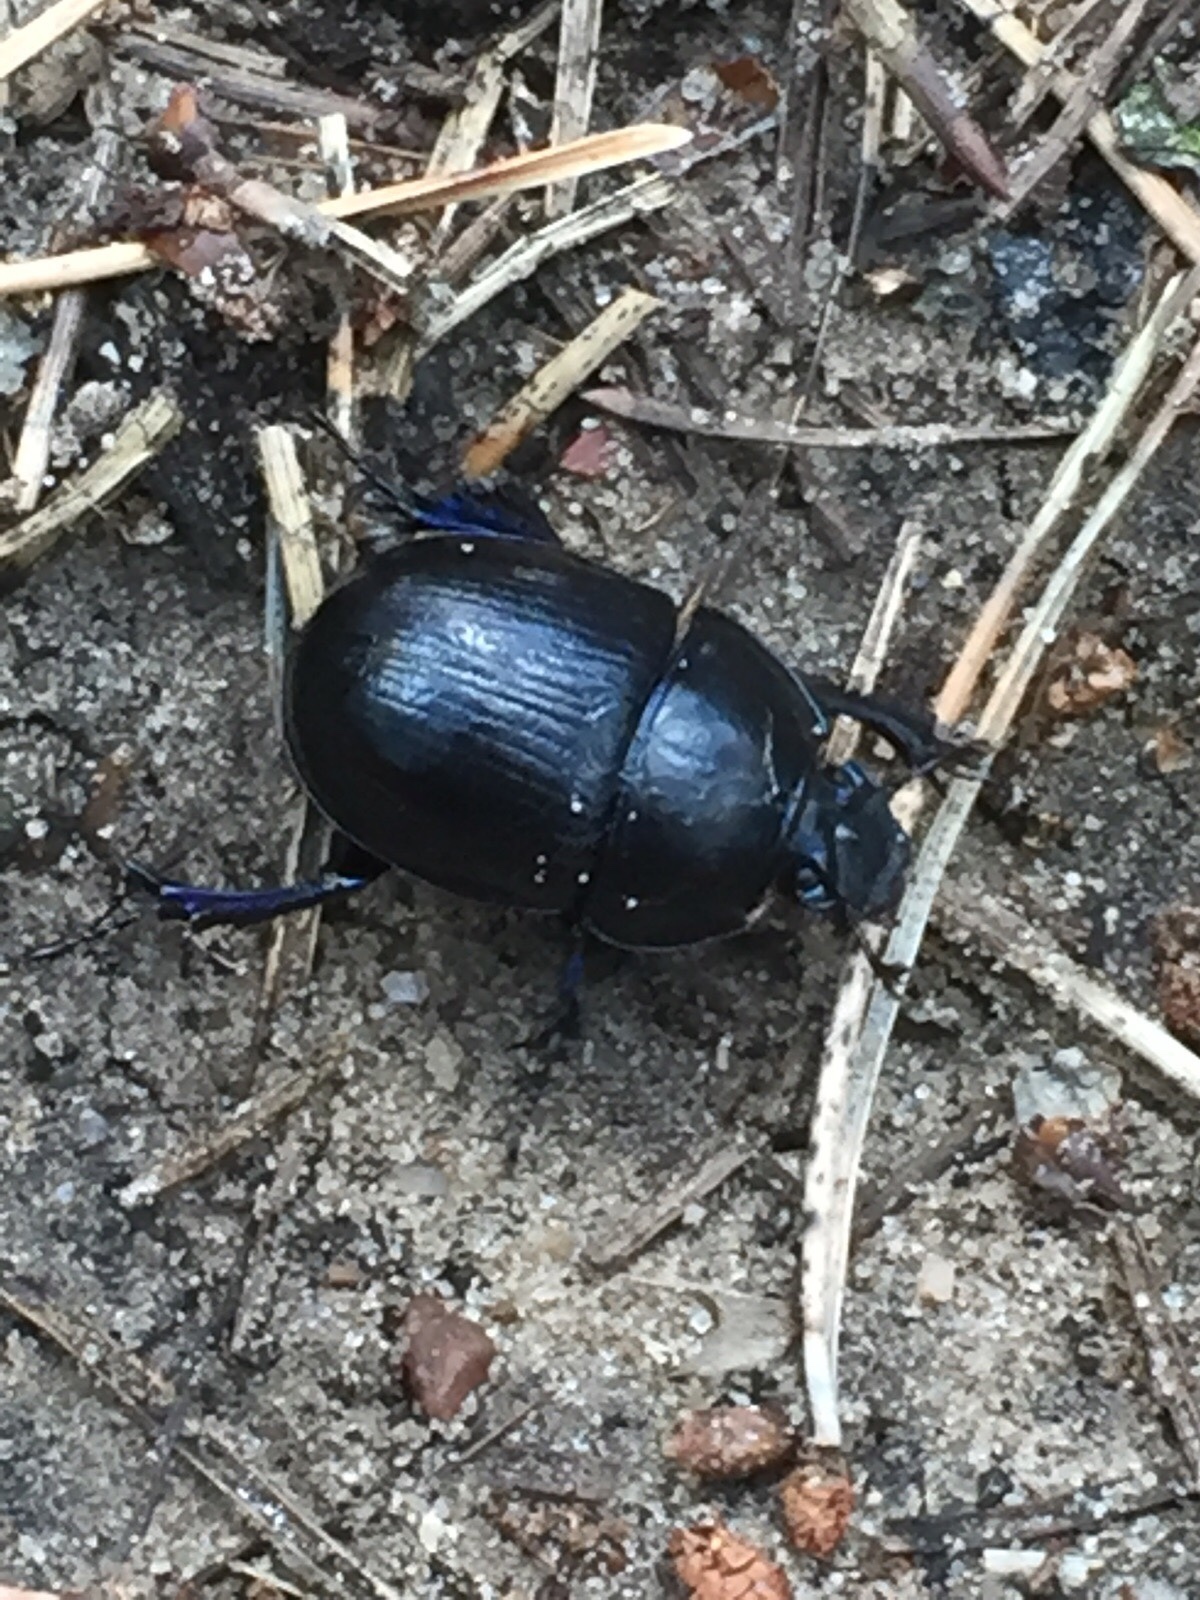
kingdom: Animalia
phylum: Arthropoda
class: Insecta
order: Coleoptera
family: Geotrupidae
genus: Anoplotrupes
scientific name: Anoplotrupes stercorosus
